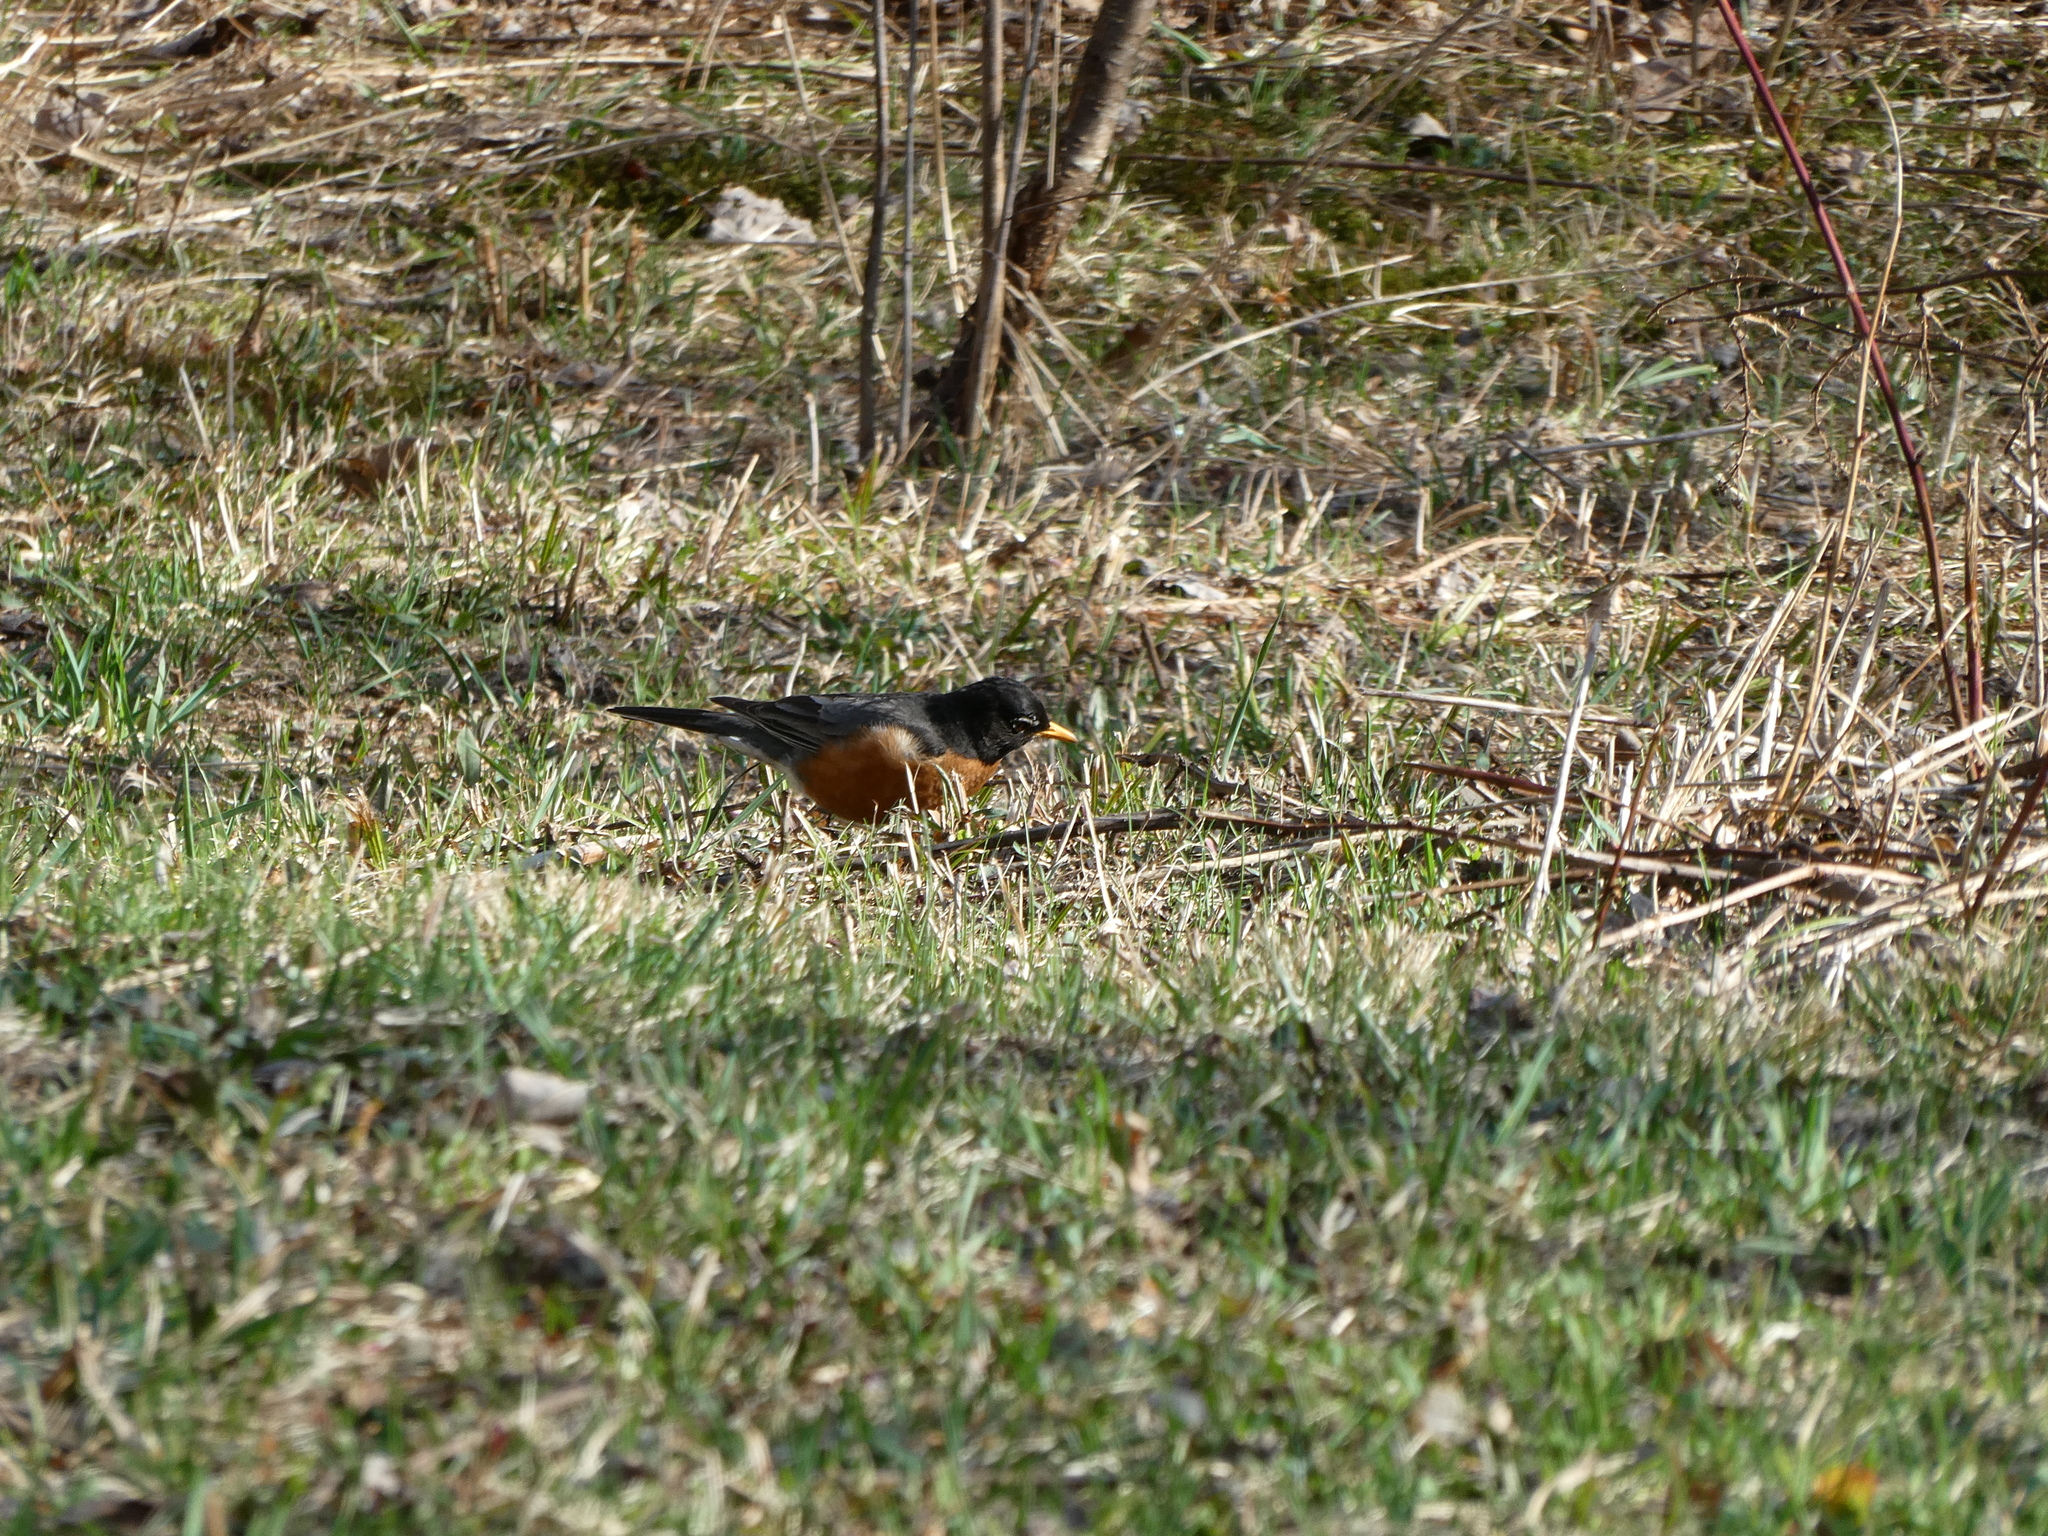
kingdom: Animalia
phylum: Chordata
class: Aves
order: Passeriformes
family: Turdidae
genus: Turdus
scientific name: Turdus migratorius
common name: American robin
